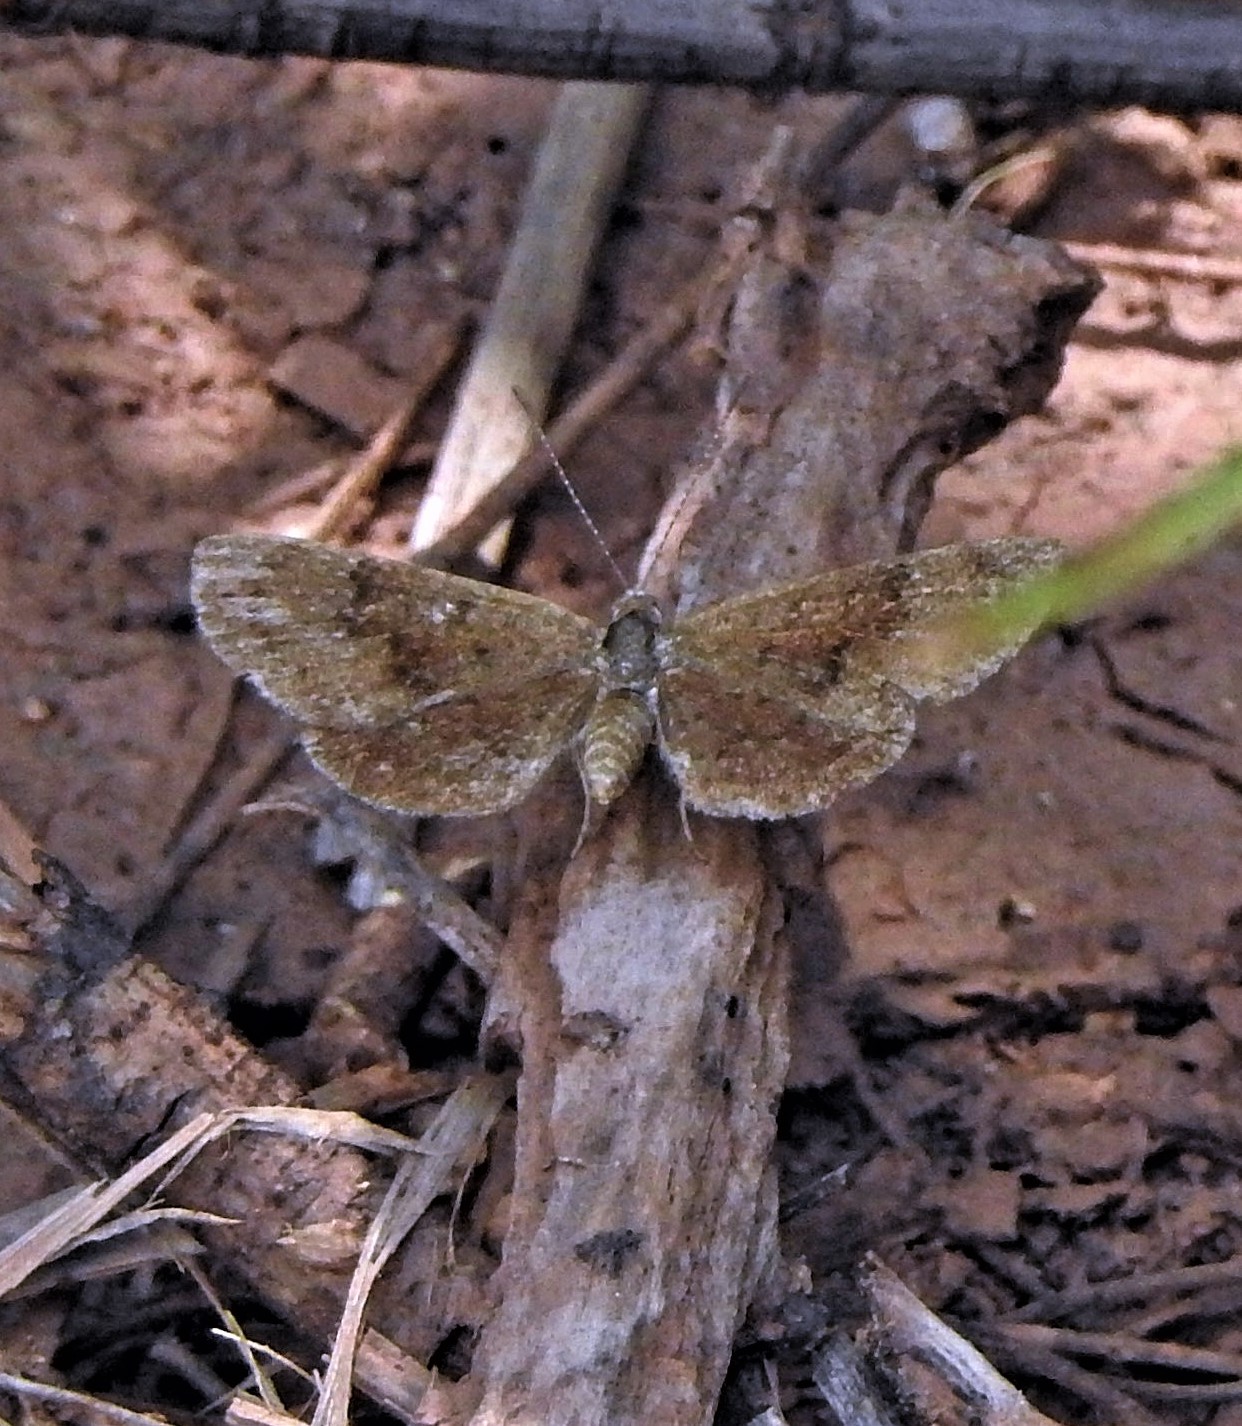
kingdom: Animalia
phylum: Arthropoda
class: Insecta
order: Lepidoptera
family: Riodinidae
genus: Zabuella
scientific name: Zabuella tenellus
